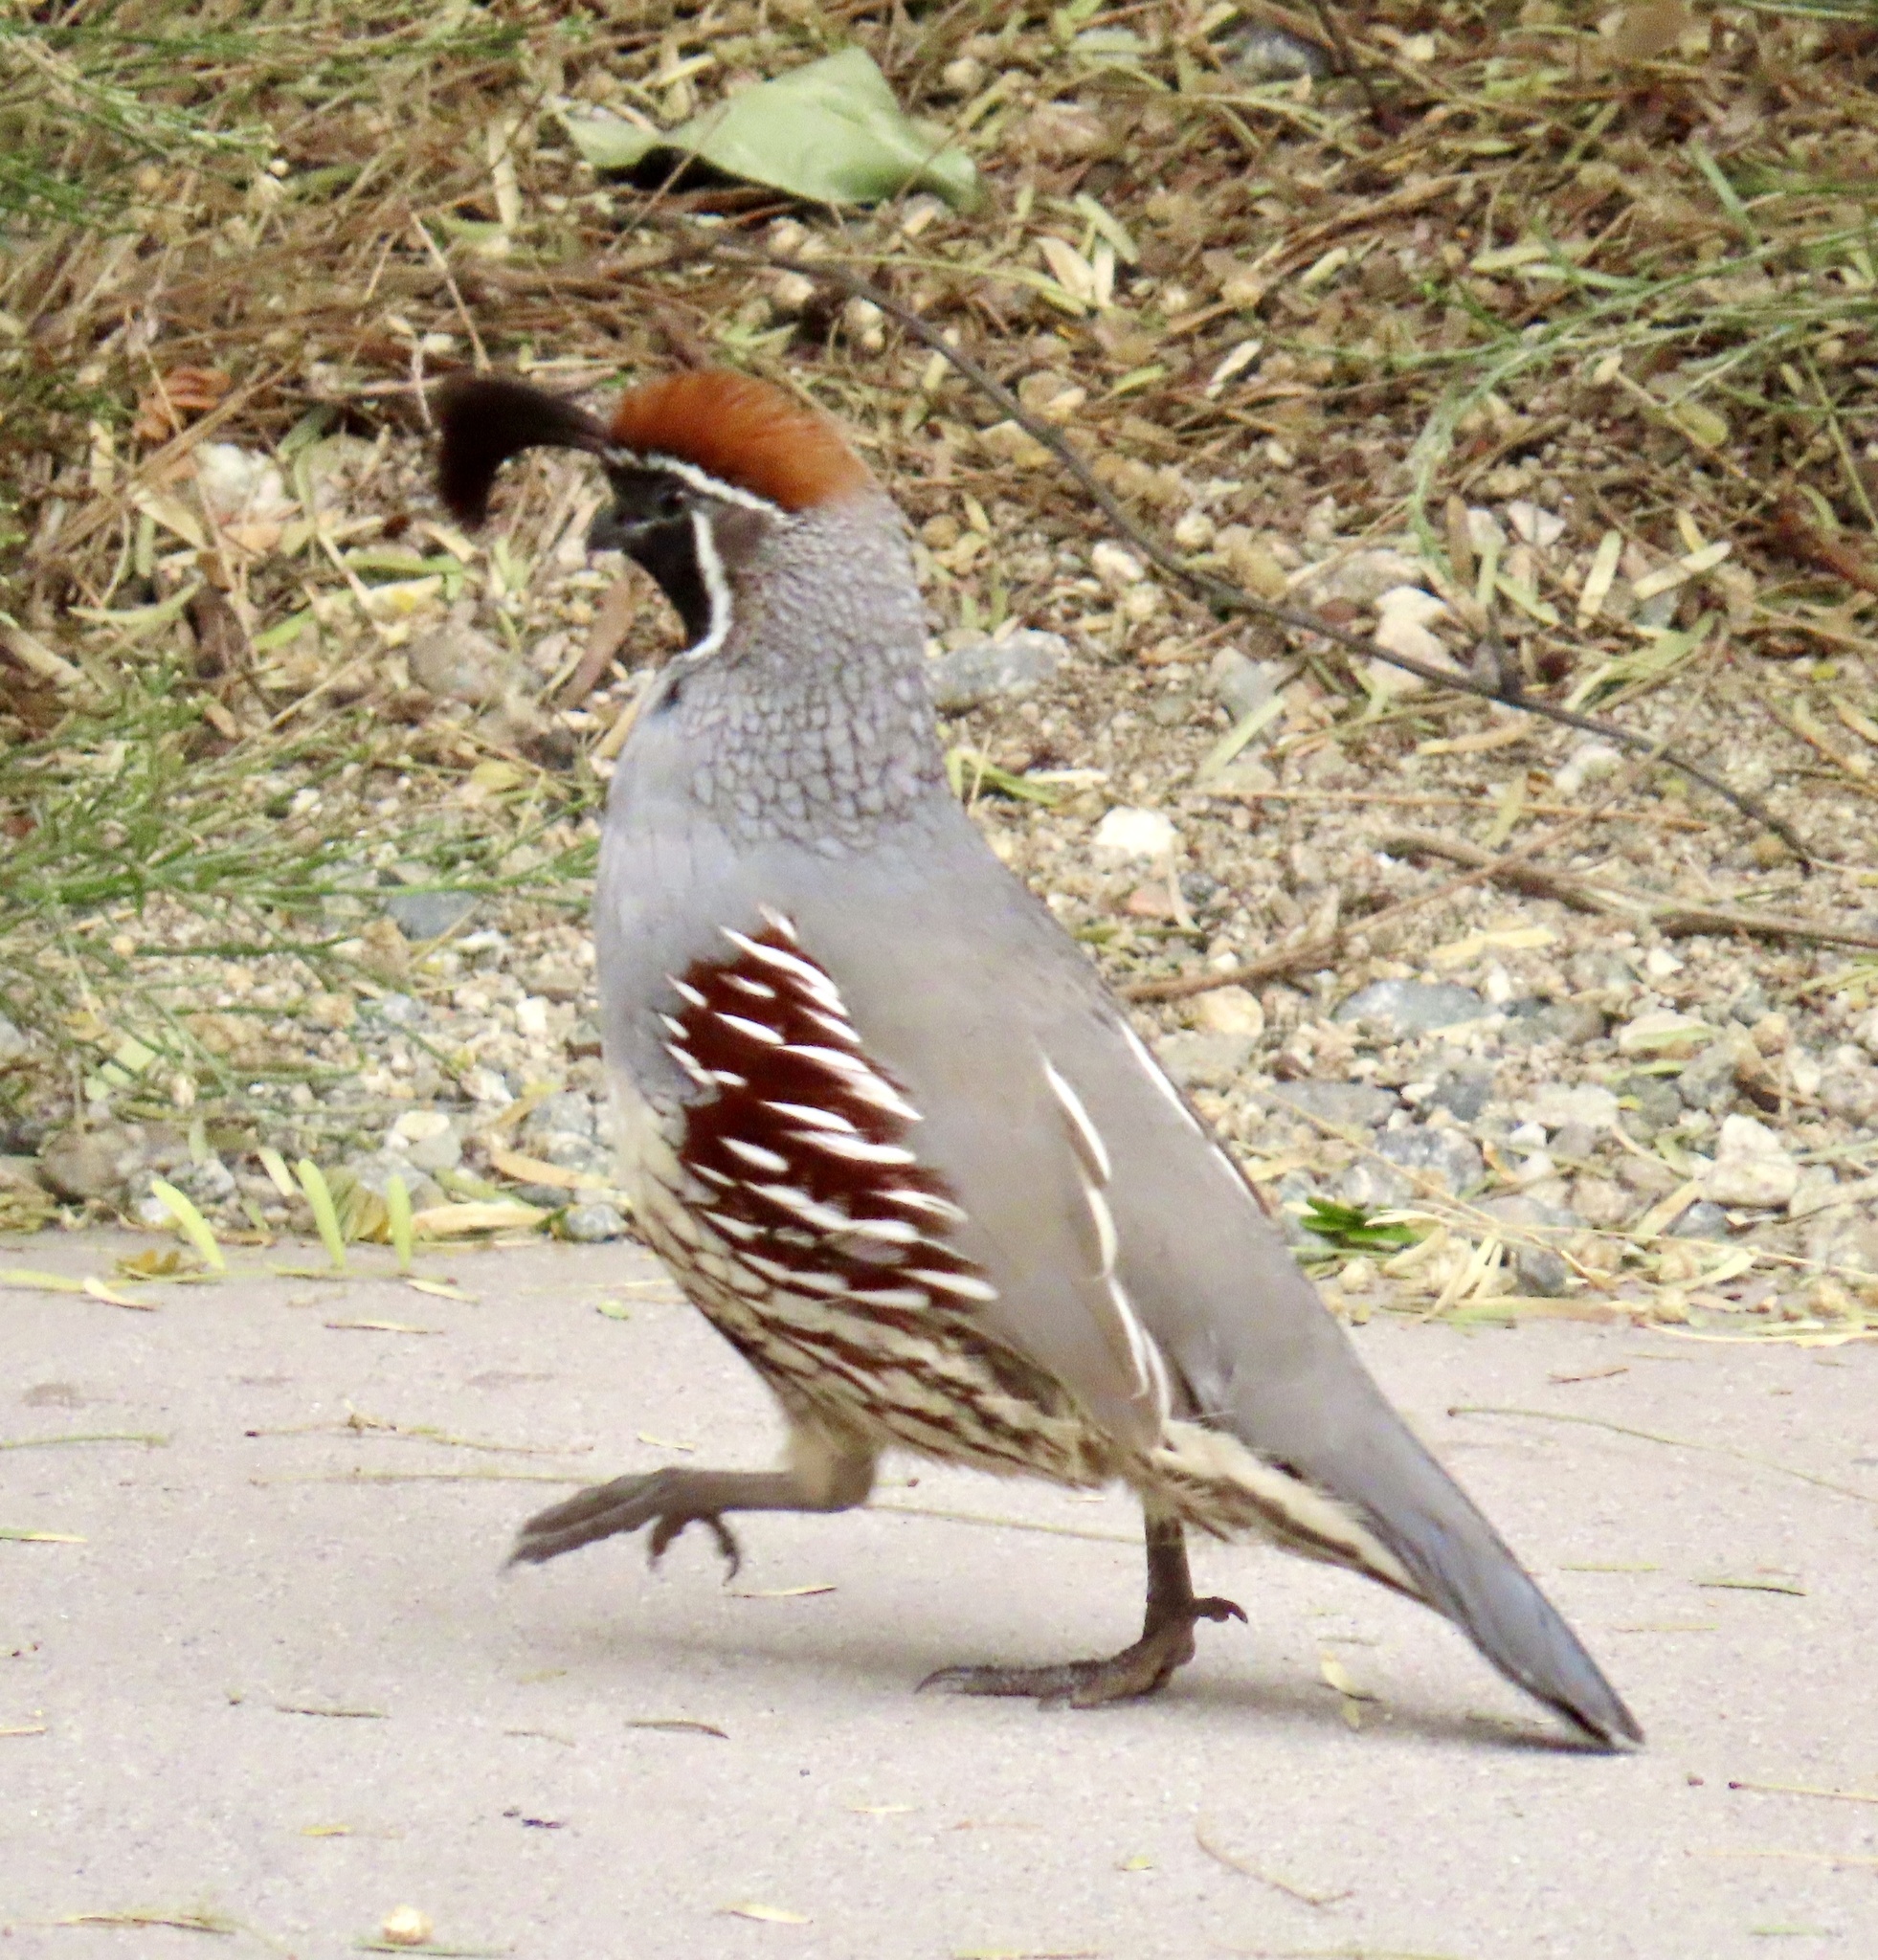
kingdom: Animalia
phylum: Chordata
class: Aves
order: Galliformes
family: Odontophoridae
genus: Callipepla
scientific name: Callipepla gambelii
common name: Gambel's quail
